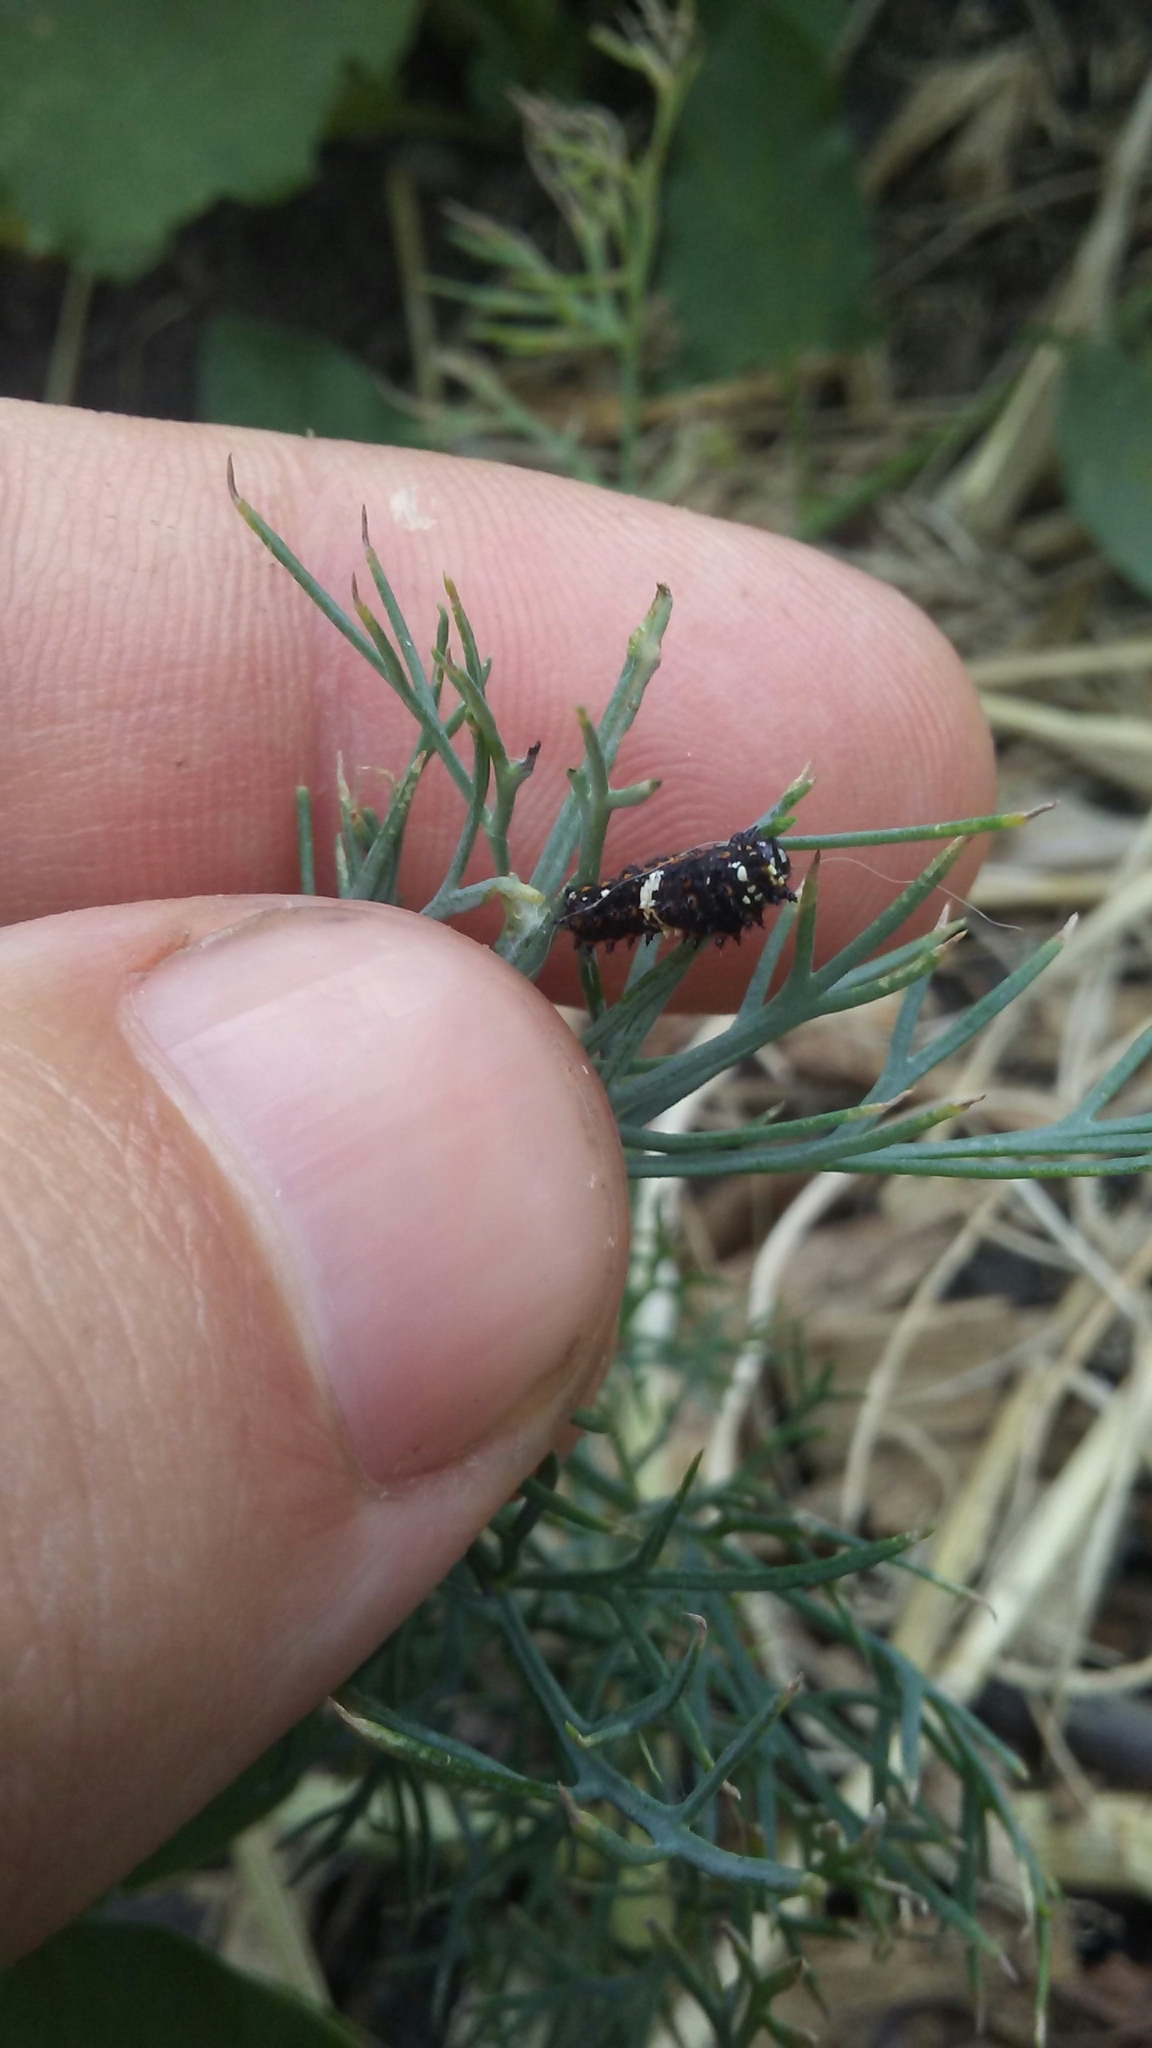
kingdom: Animalia
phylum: Arthropoda
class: Insecta
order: Lepidoptera
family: Papilionidae
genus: Papilio
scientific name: Papilio polyxenes
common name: Black swallowtail
